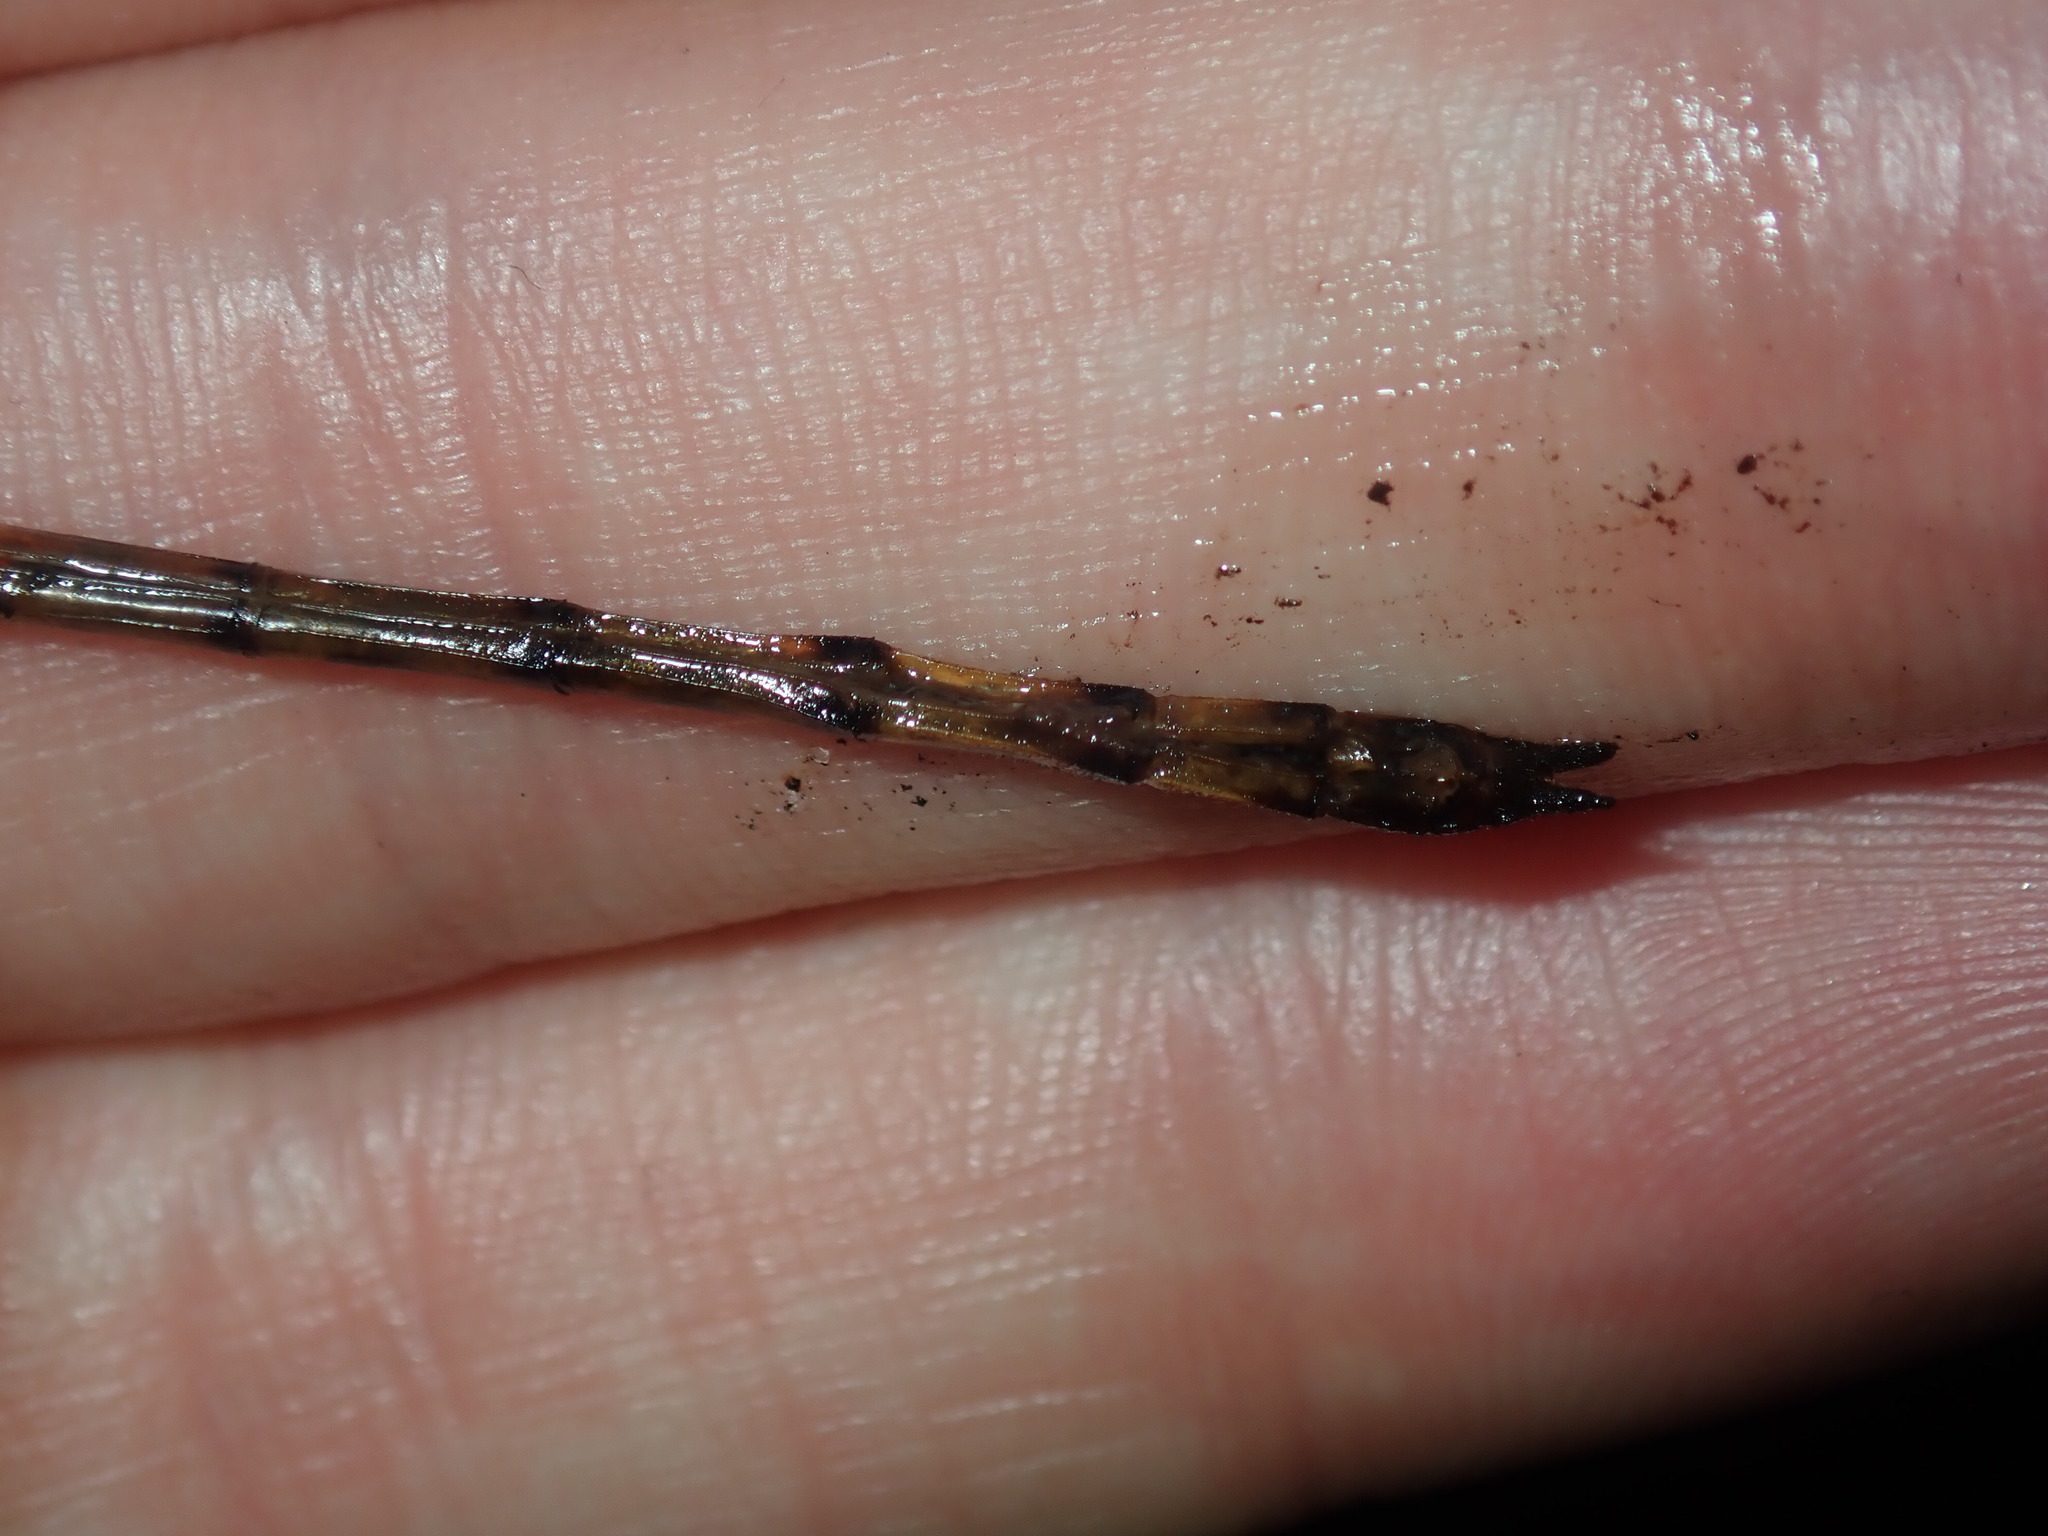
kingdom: Animalia
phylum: Arthropoda
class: Insecta
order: Odonata
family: Corduliidae
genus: Hemicordulia
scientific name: Hemicordulia australiae
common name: Sentry dragonfly
